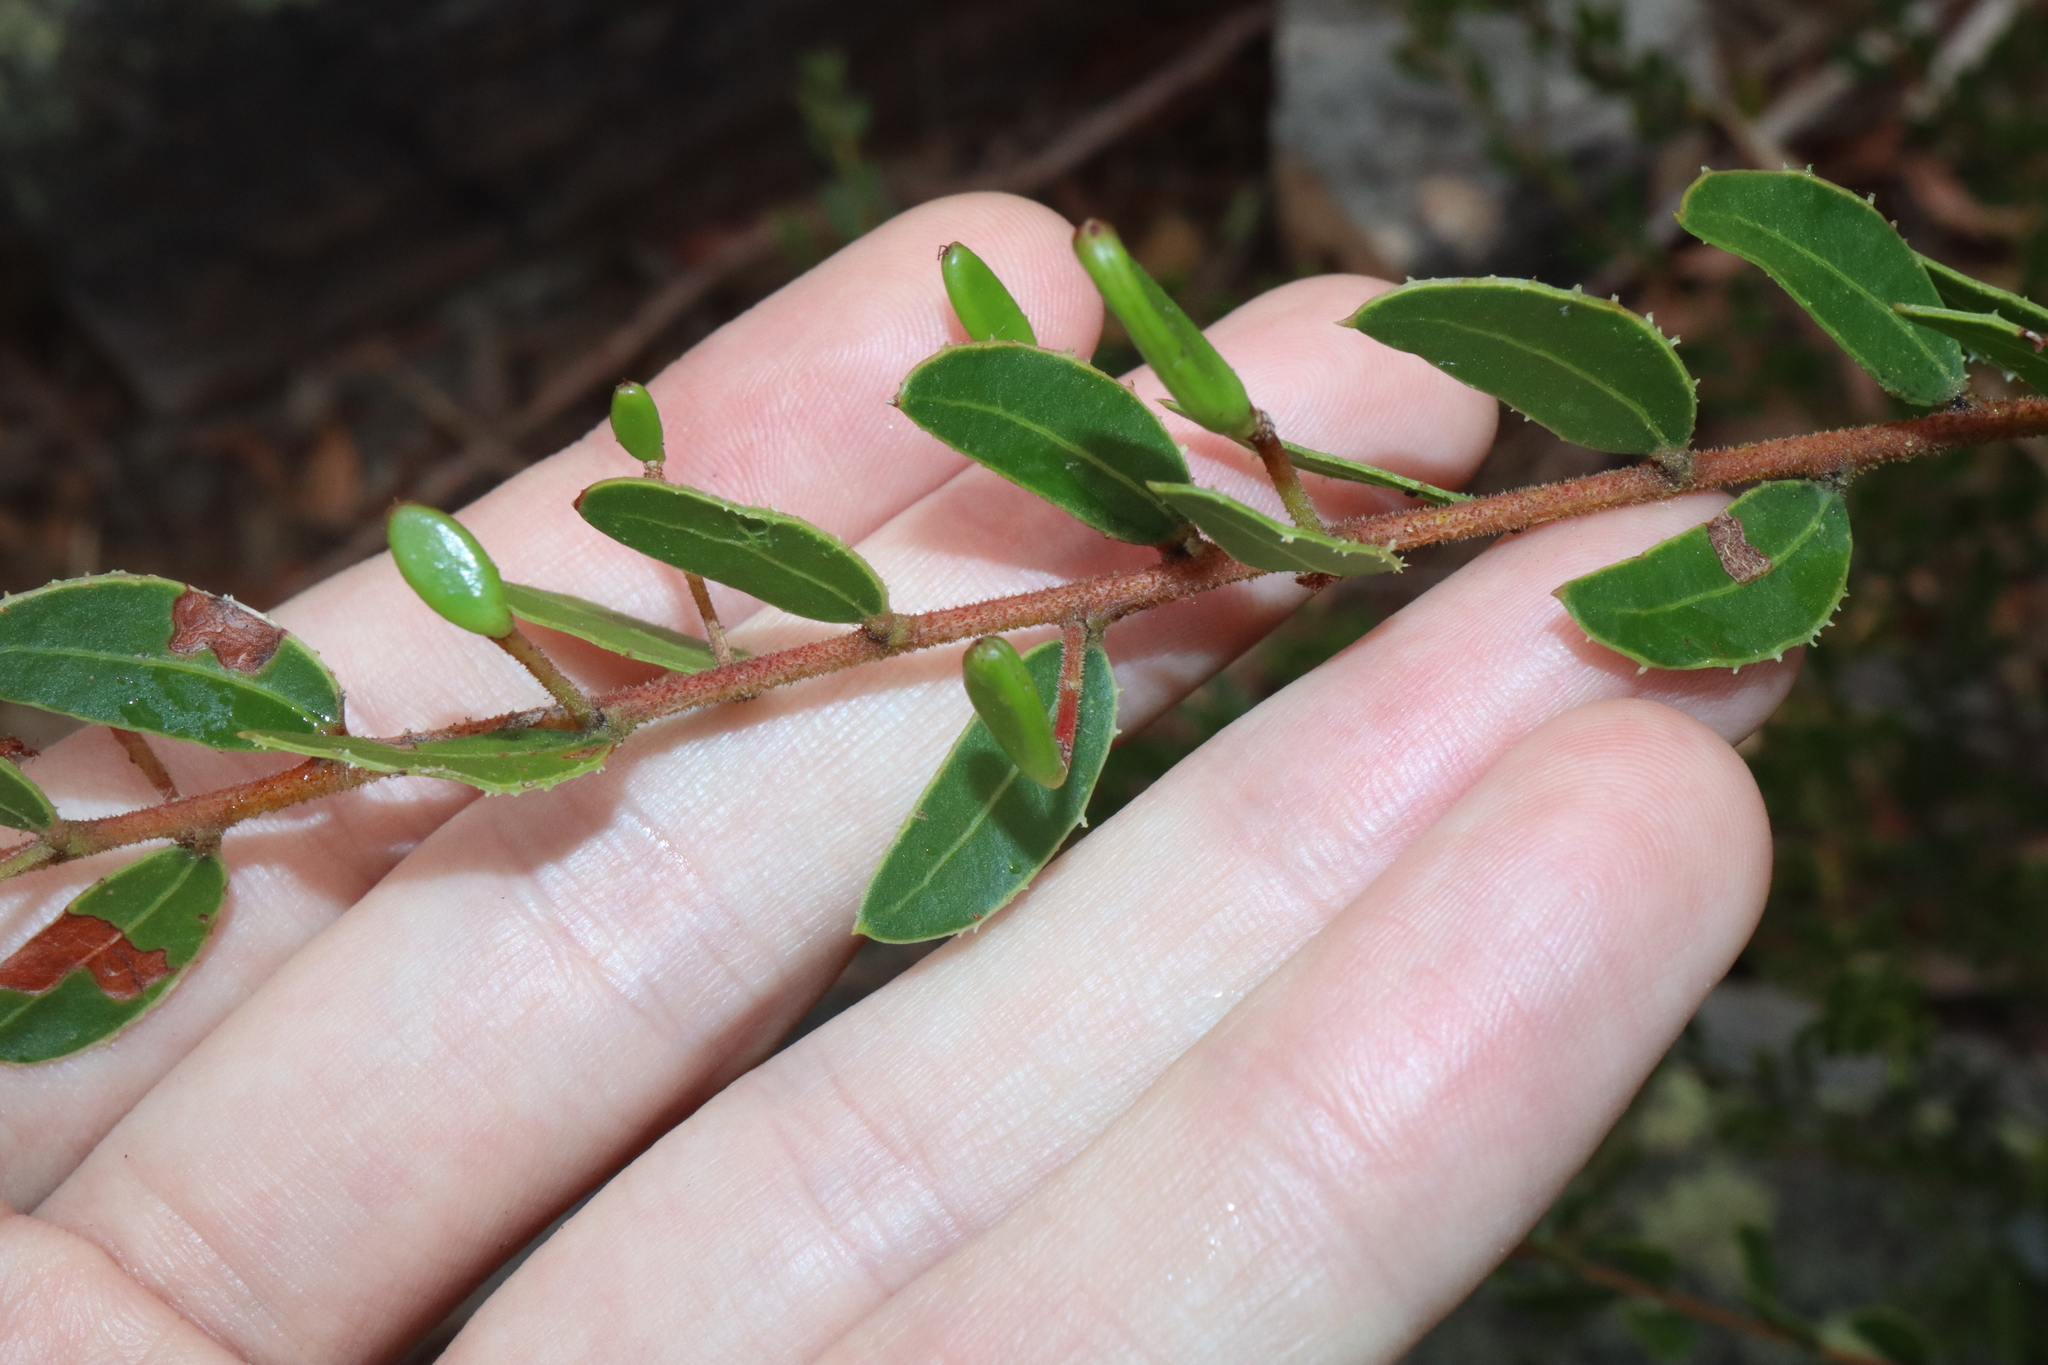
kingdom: Plantae
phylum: Tracheophyta
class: Magnoliopsida
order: Fabales
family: Fabaceae
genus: Acacia
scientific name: Acacia hispidula
